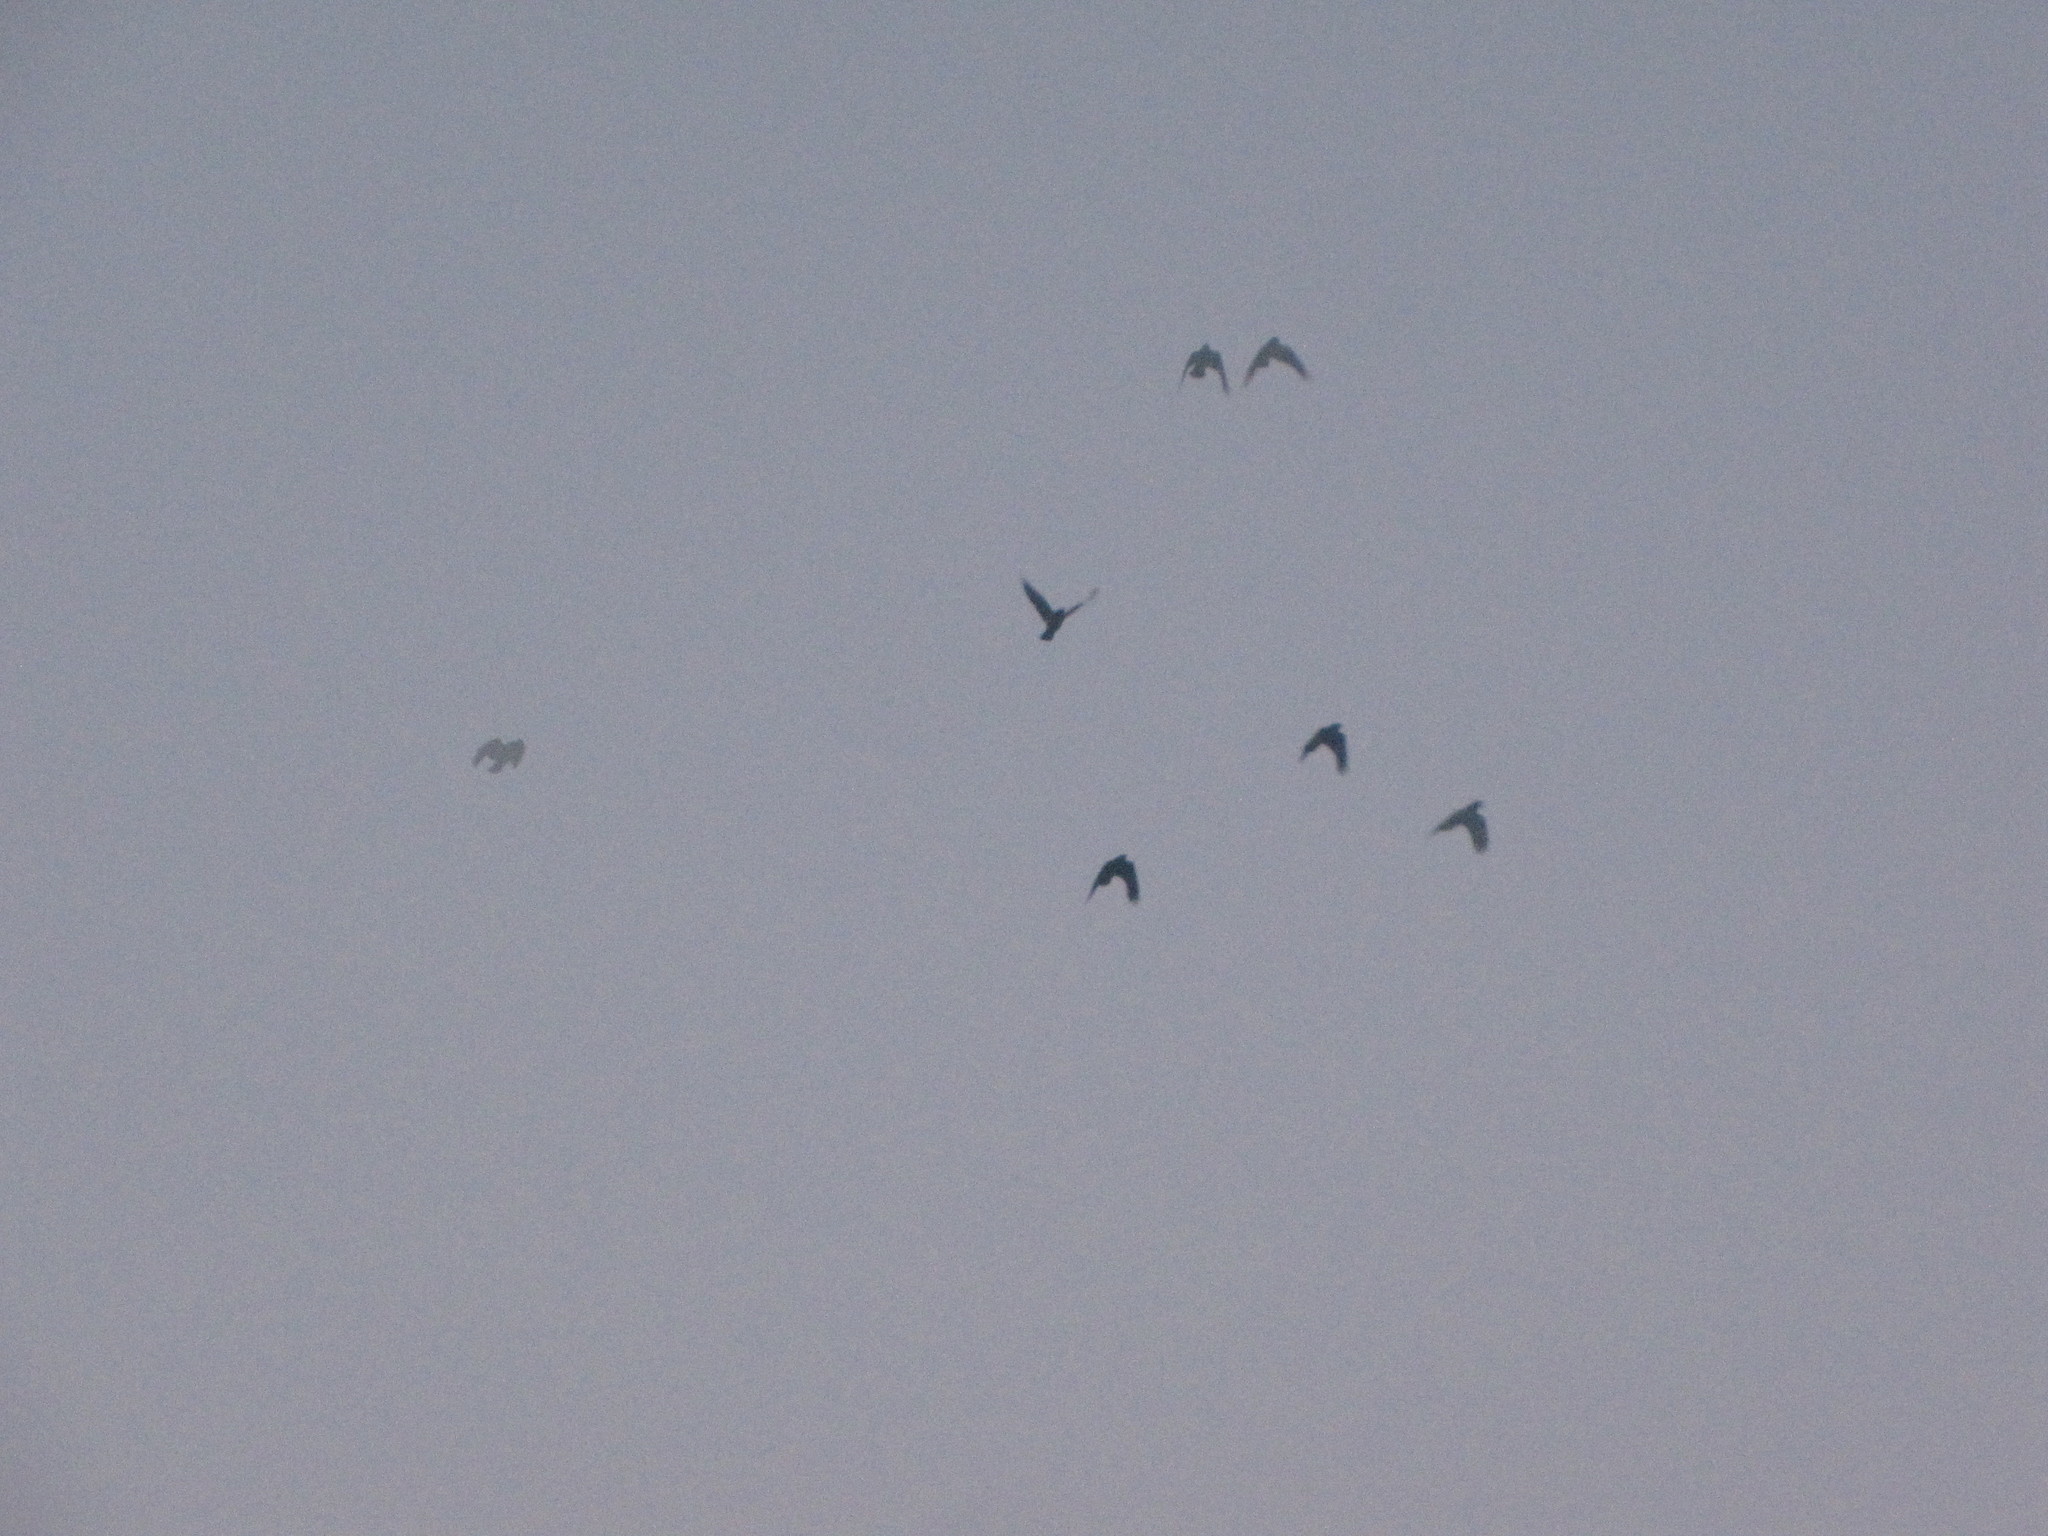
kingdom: Animalia
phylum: Chordata
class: Aves
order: Passeriformes
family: Corvidae
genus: Corvus
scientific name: Corvus brachyrhynchos
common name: American crow
